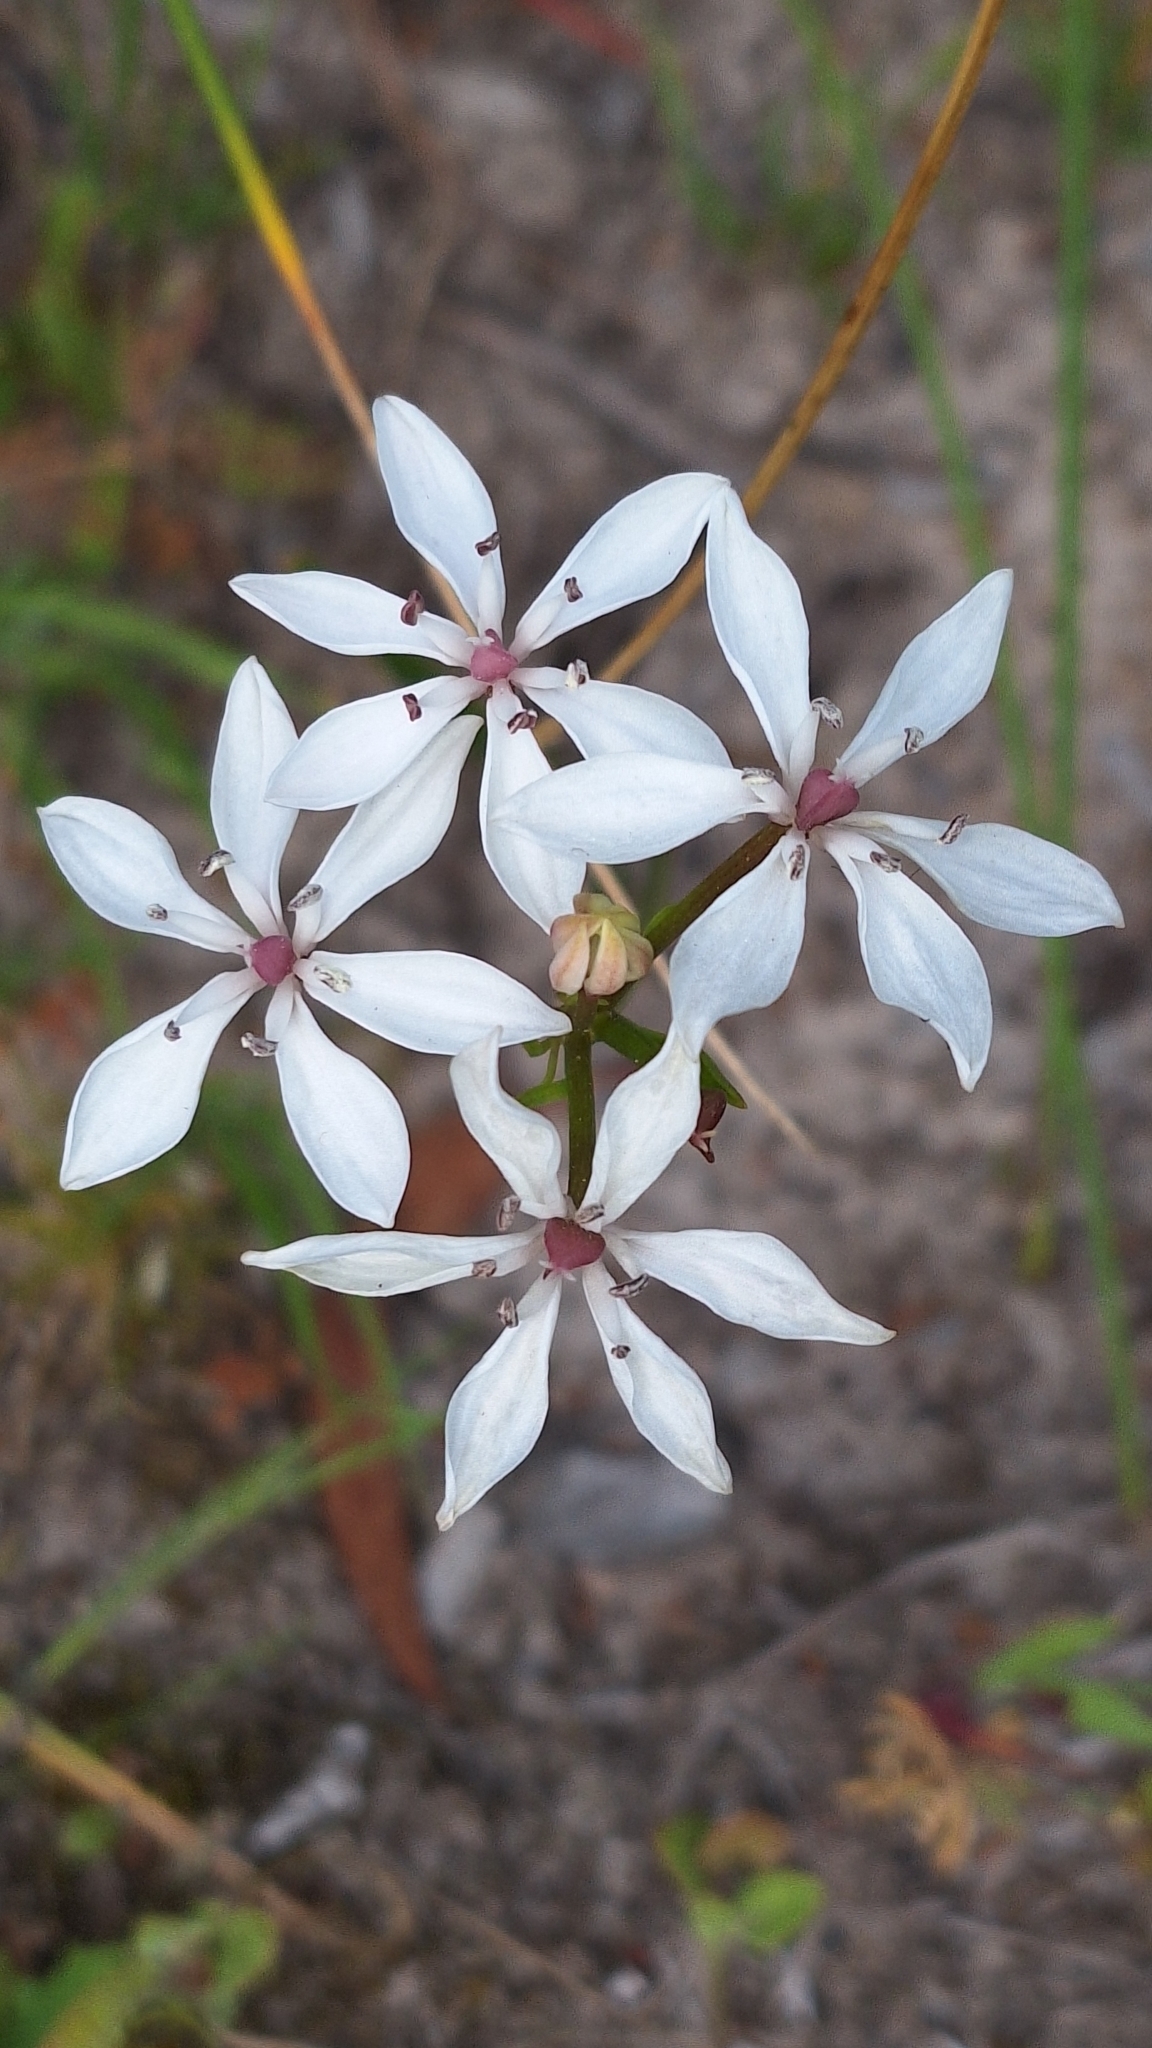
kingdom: Plantae
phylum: Tracheophyta
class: Liliopsida
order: Liliales
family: Colchicaceae
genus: Burchardia
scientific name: Burchardia umbellata
